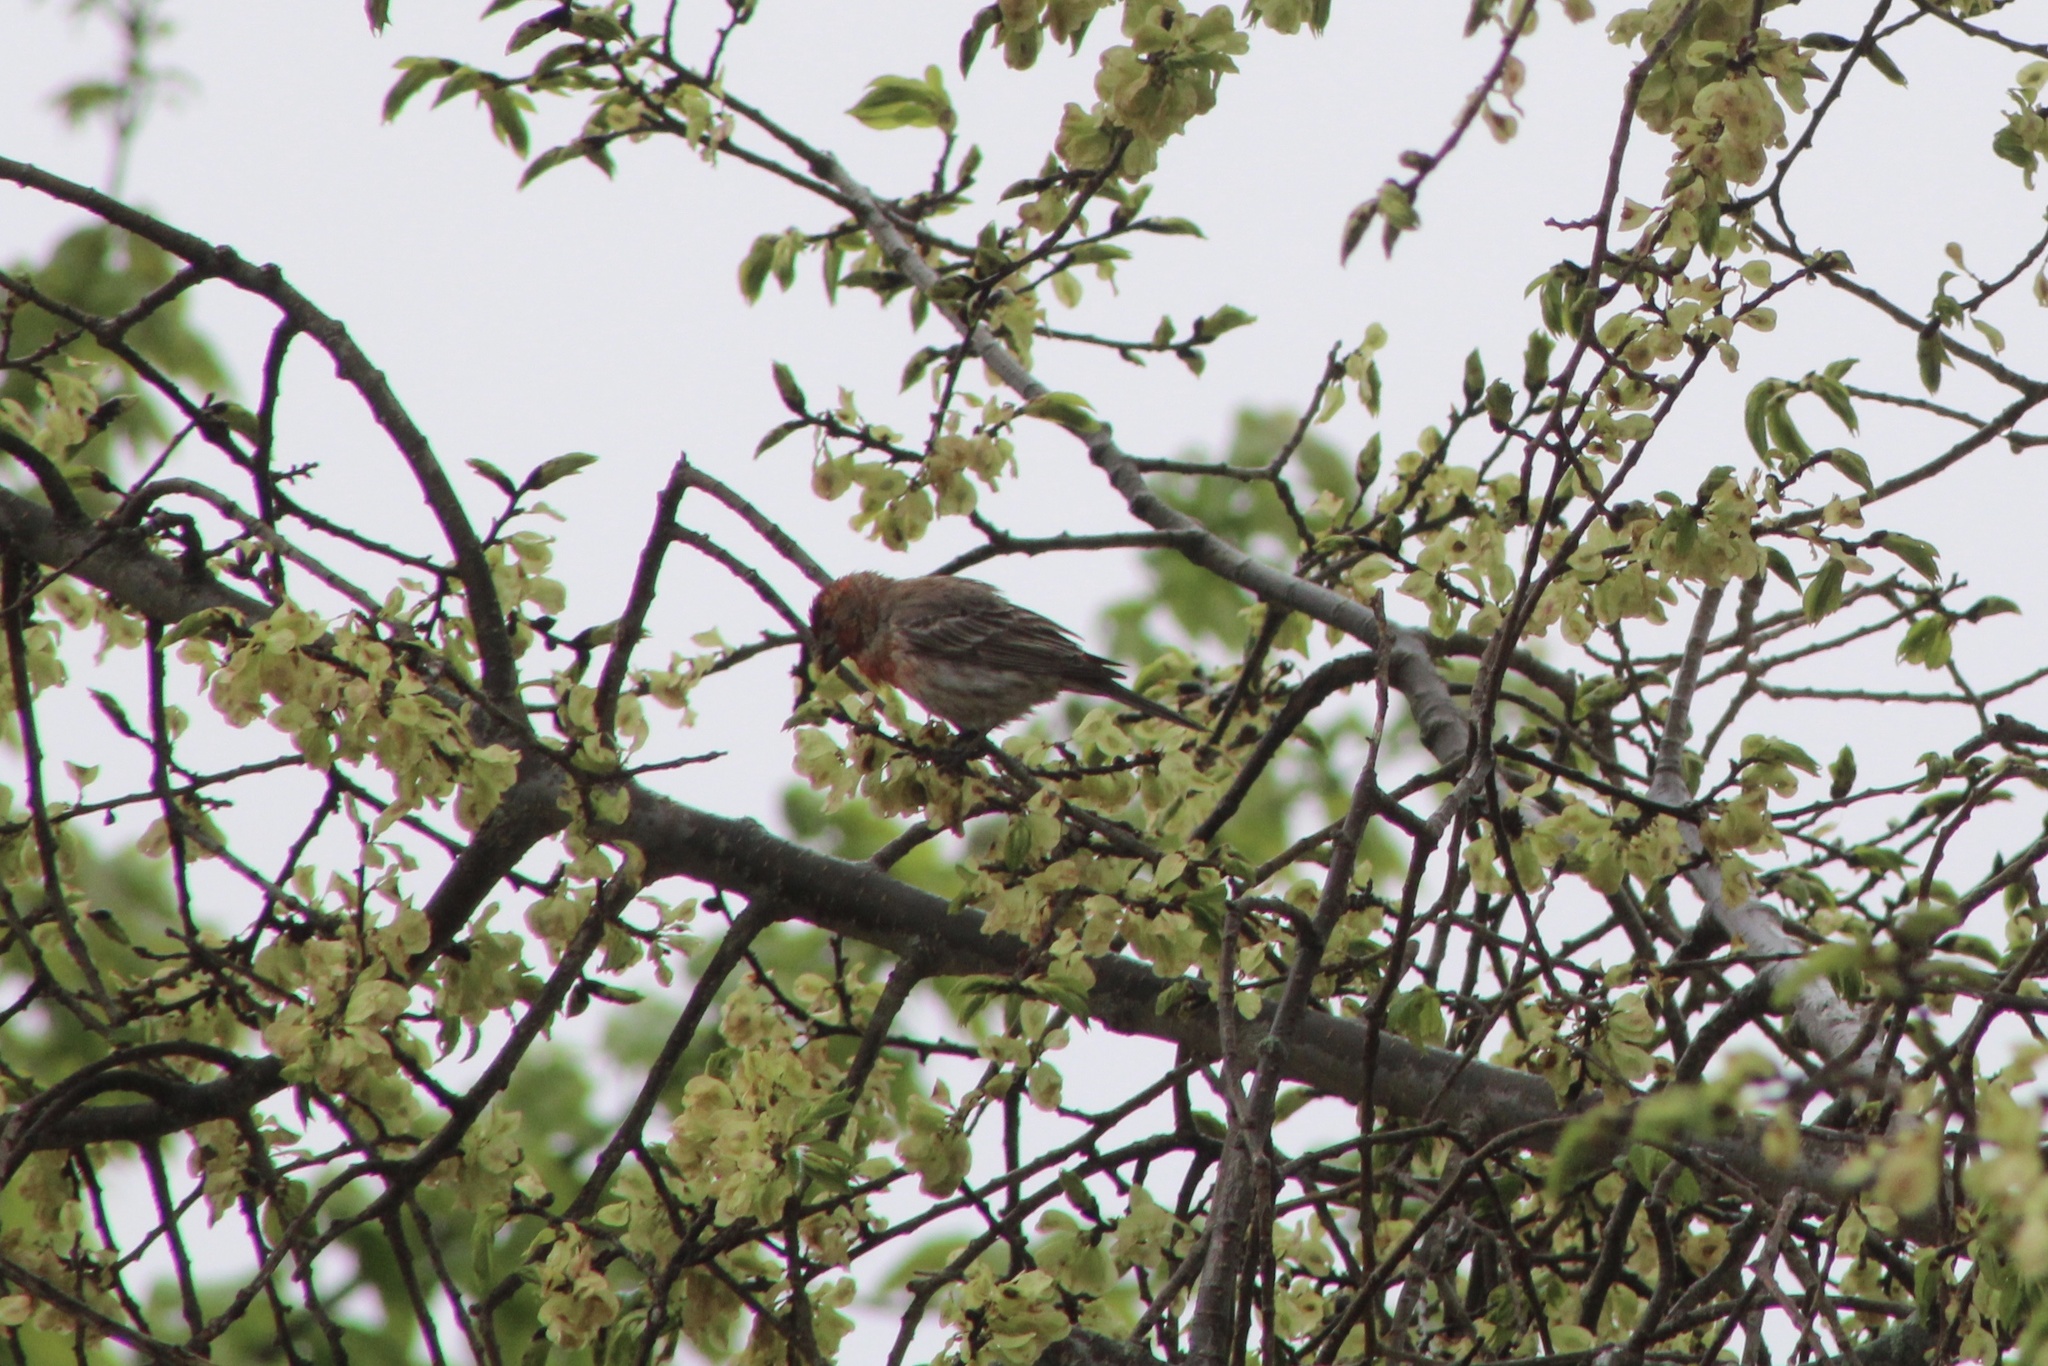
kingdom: Animalia
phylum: Chordata
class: Aves
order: Passeriformes
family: Fringillidae
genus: Haemorhous
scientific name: Haemorhous mexicanus
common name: House finch
